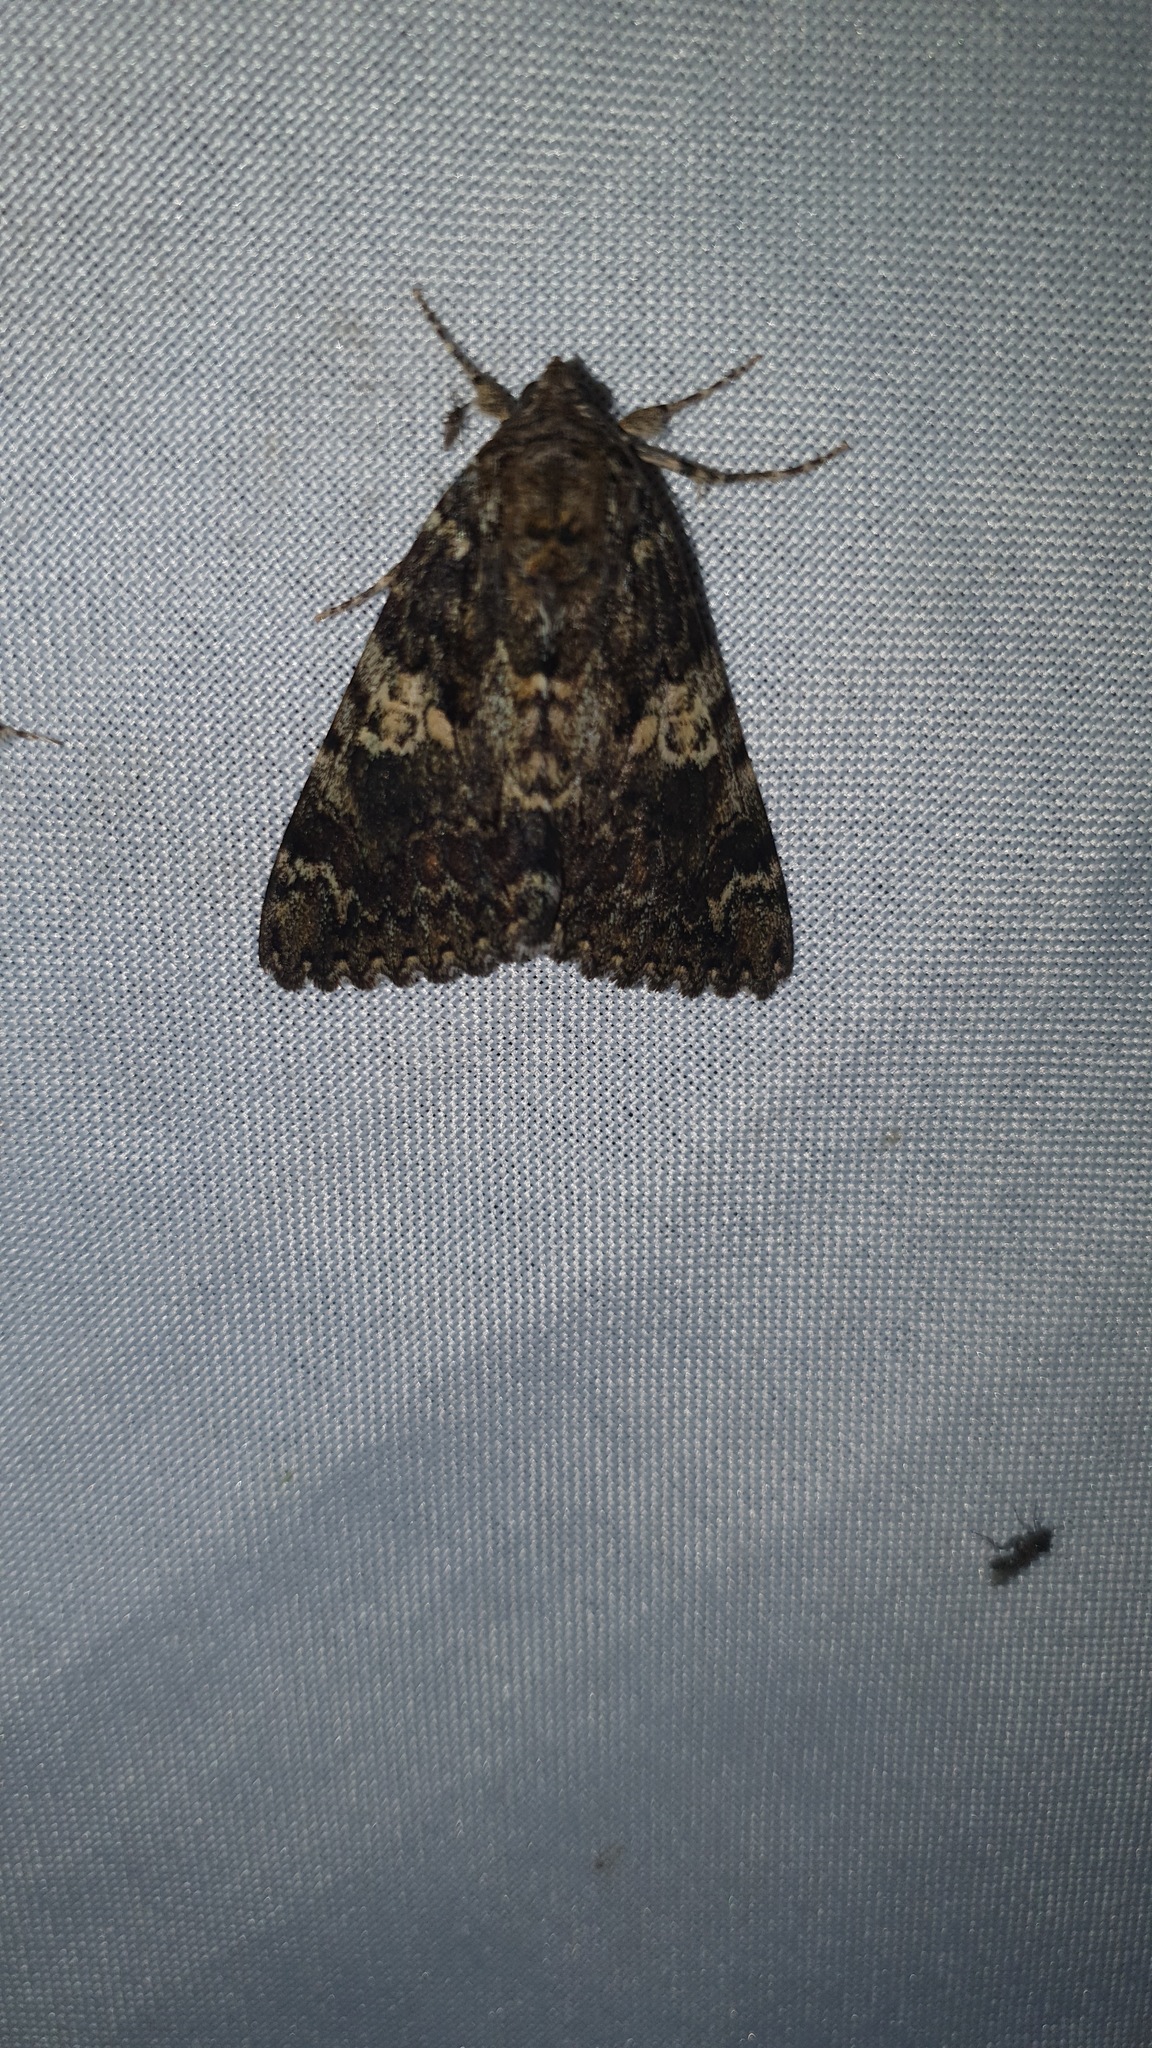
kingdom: Animalia
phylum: Arthropoda
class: Insecta
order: Lepidoptera
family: Erebidae
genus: Catocala
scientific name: Catocala sponsa
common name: Dark crimson underwing
